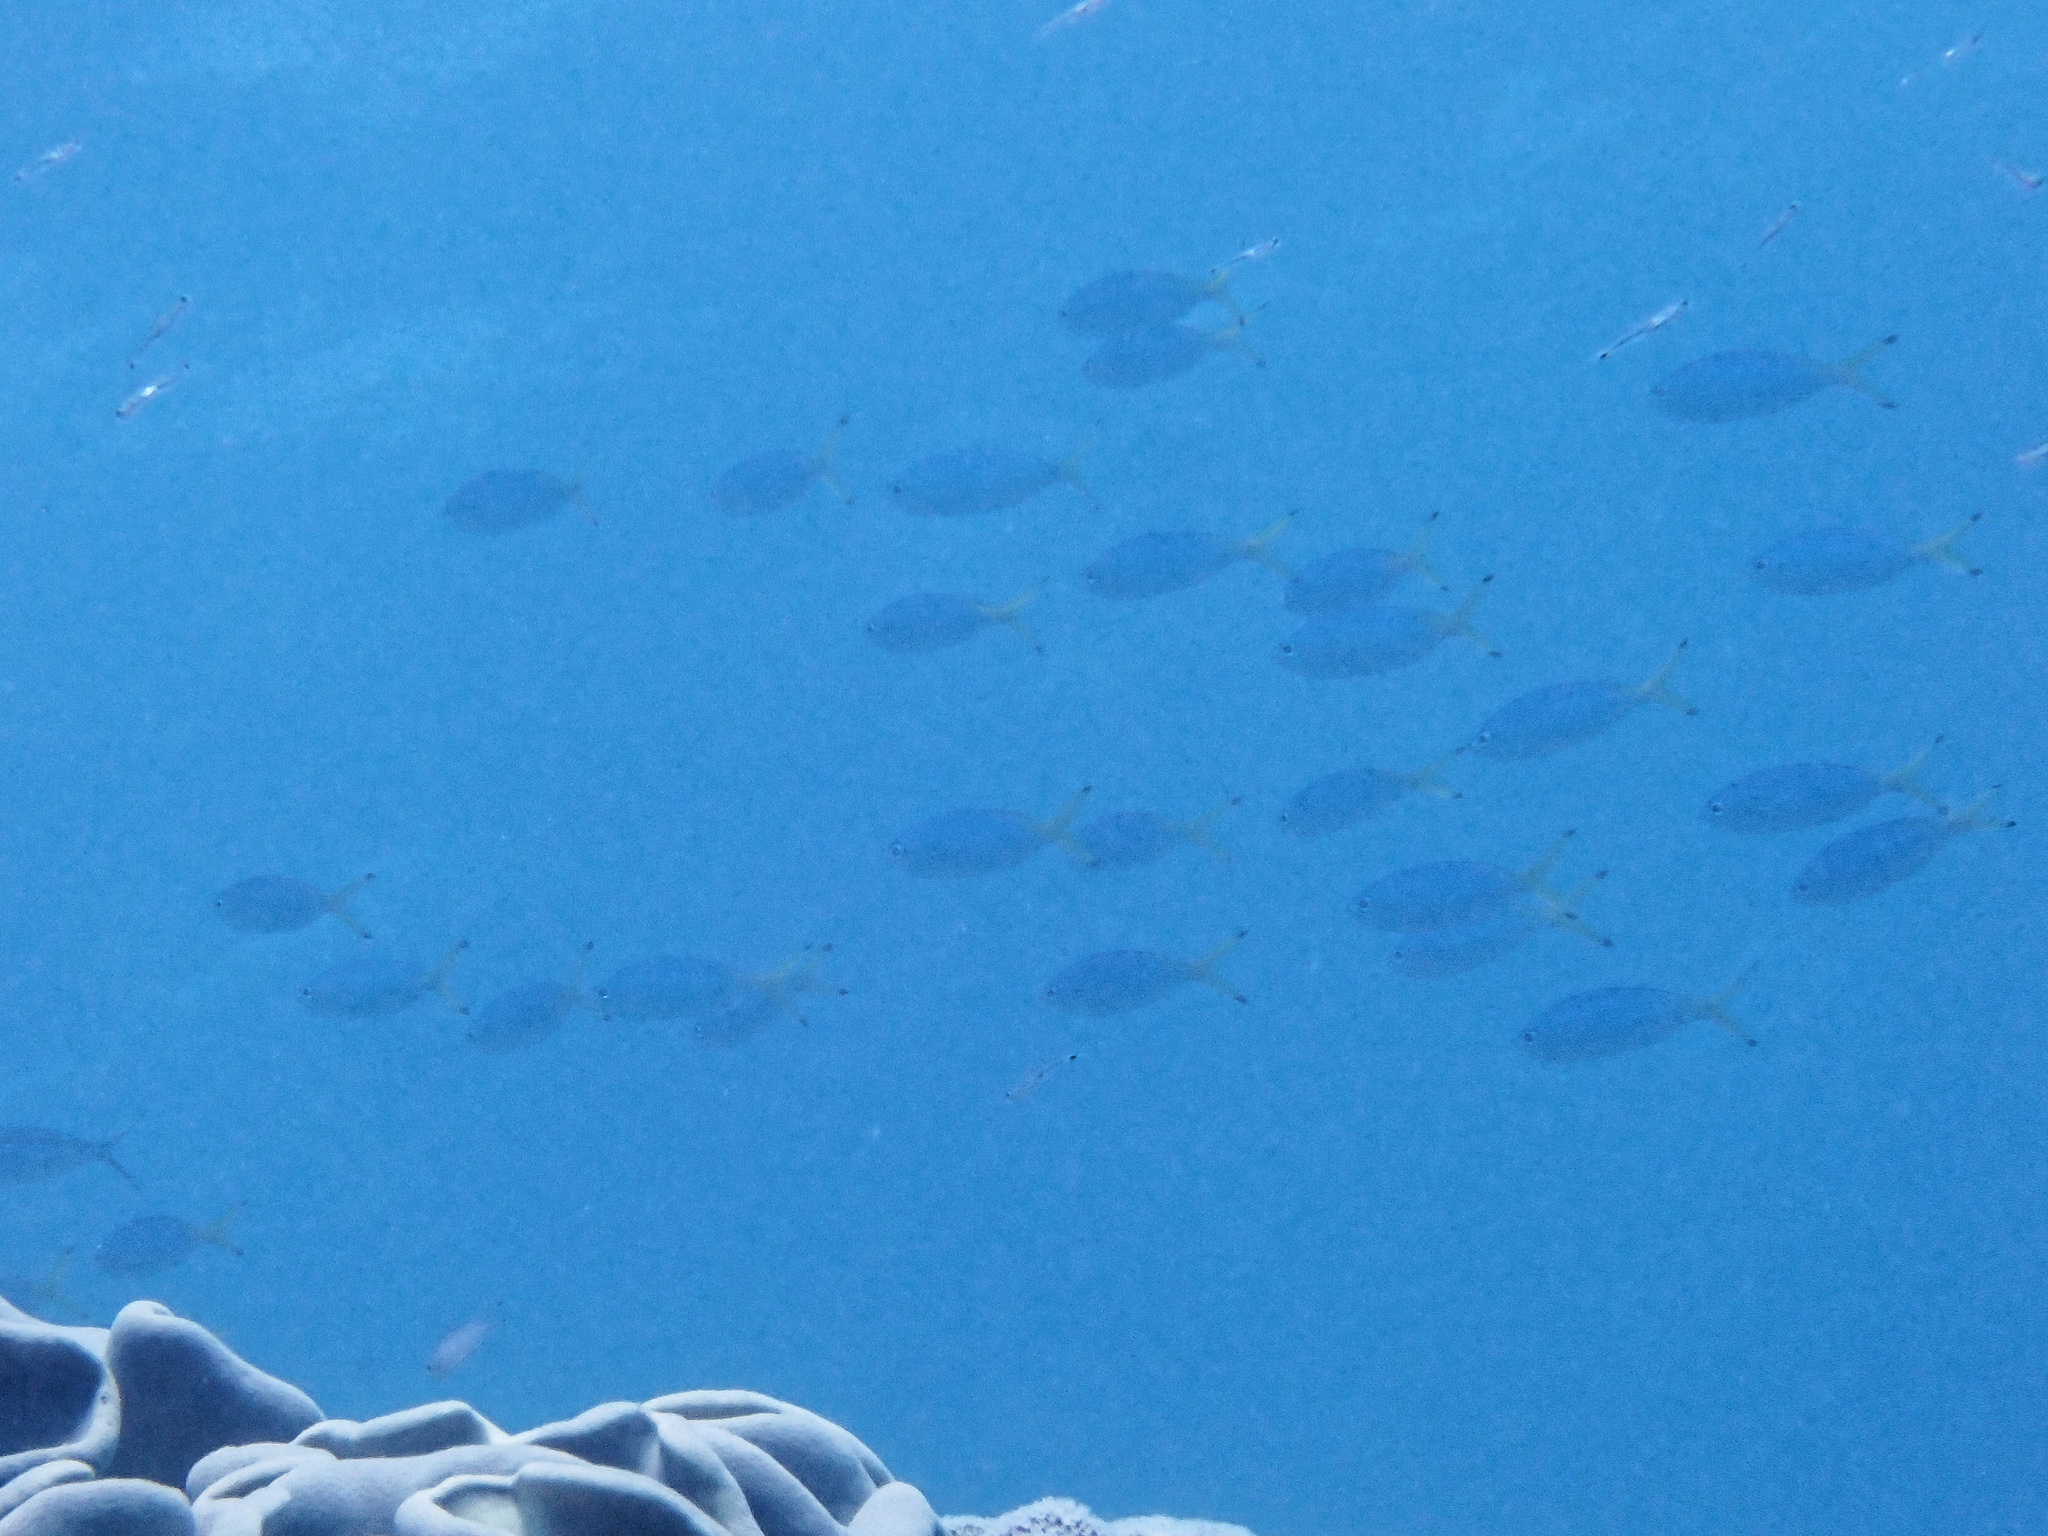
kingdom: Animalia
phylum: Chordata
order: Perciformes
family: Caesionidae
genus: Caesio
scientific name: Caesio lunaris
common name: Blue fusilier
